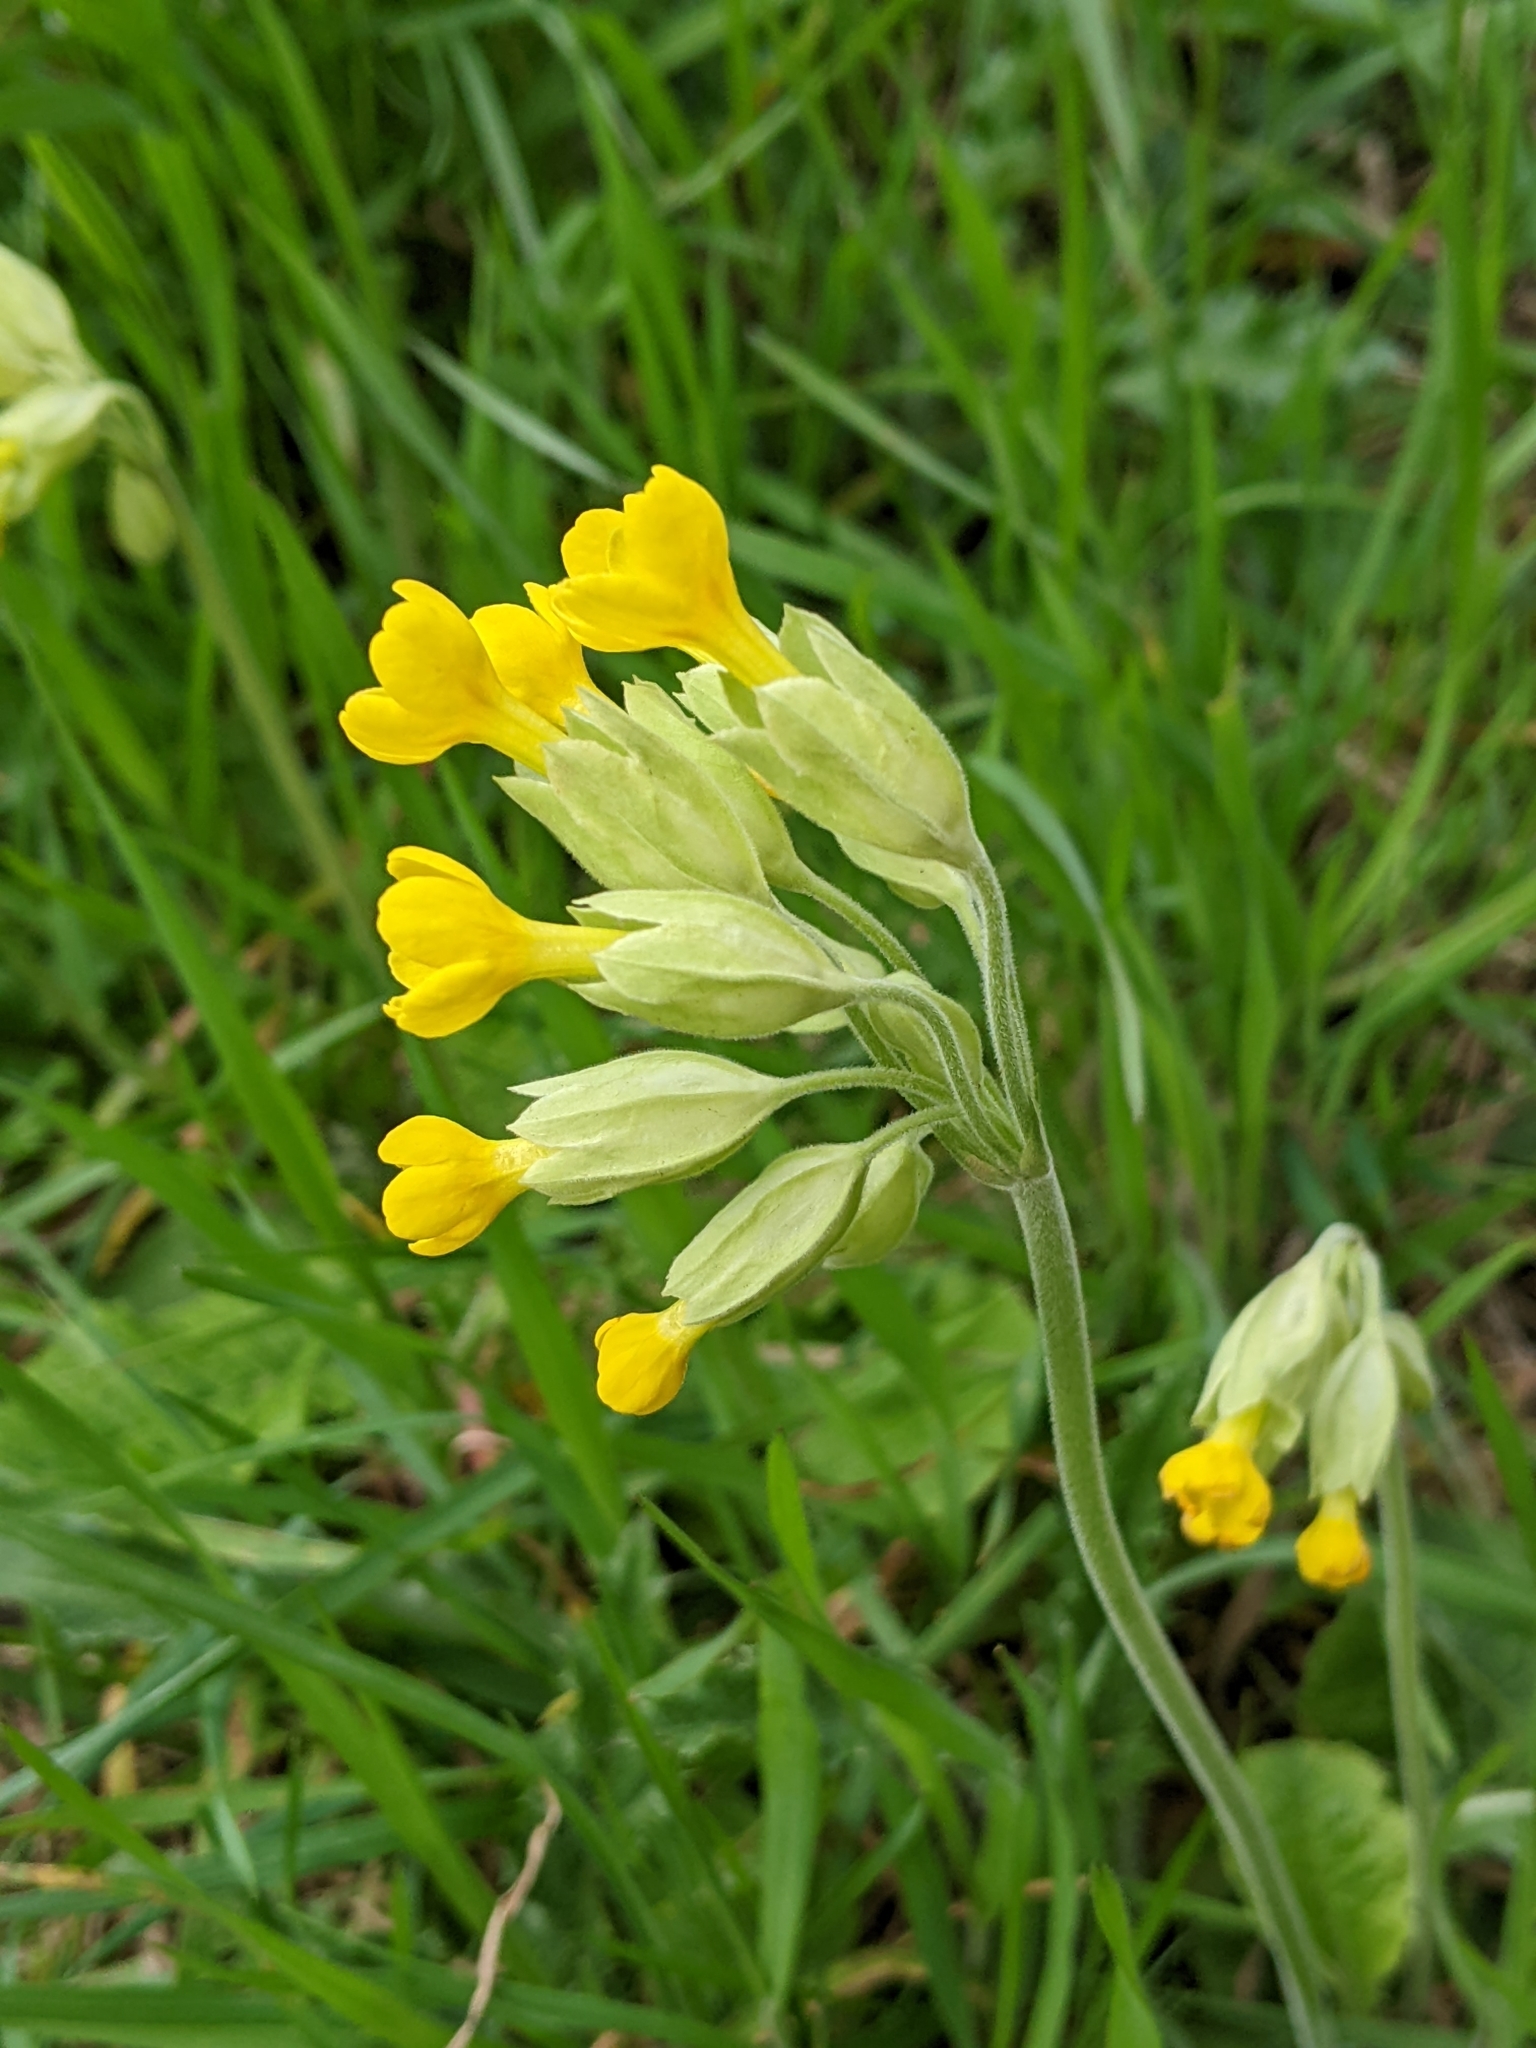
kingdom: Plantae
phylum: Tracheophyta
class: Magnoliopsida
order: Ericales
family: Primulaceae
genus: Primula
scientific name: Primula veris
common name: Cowslip
